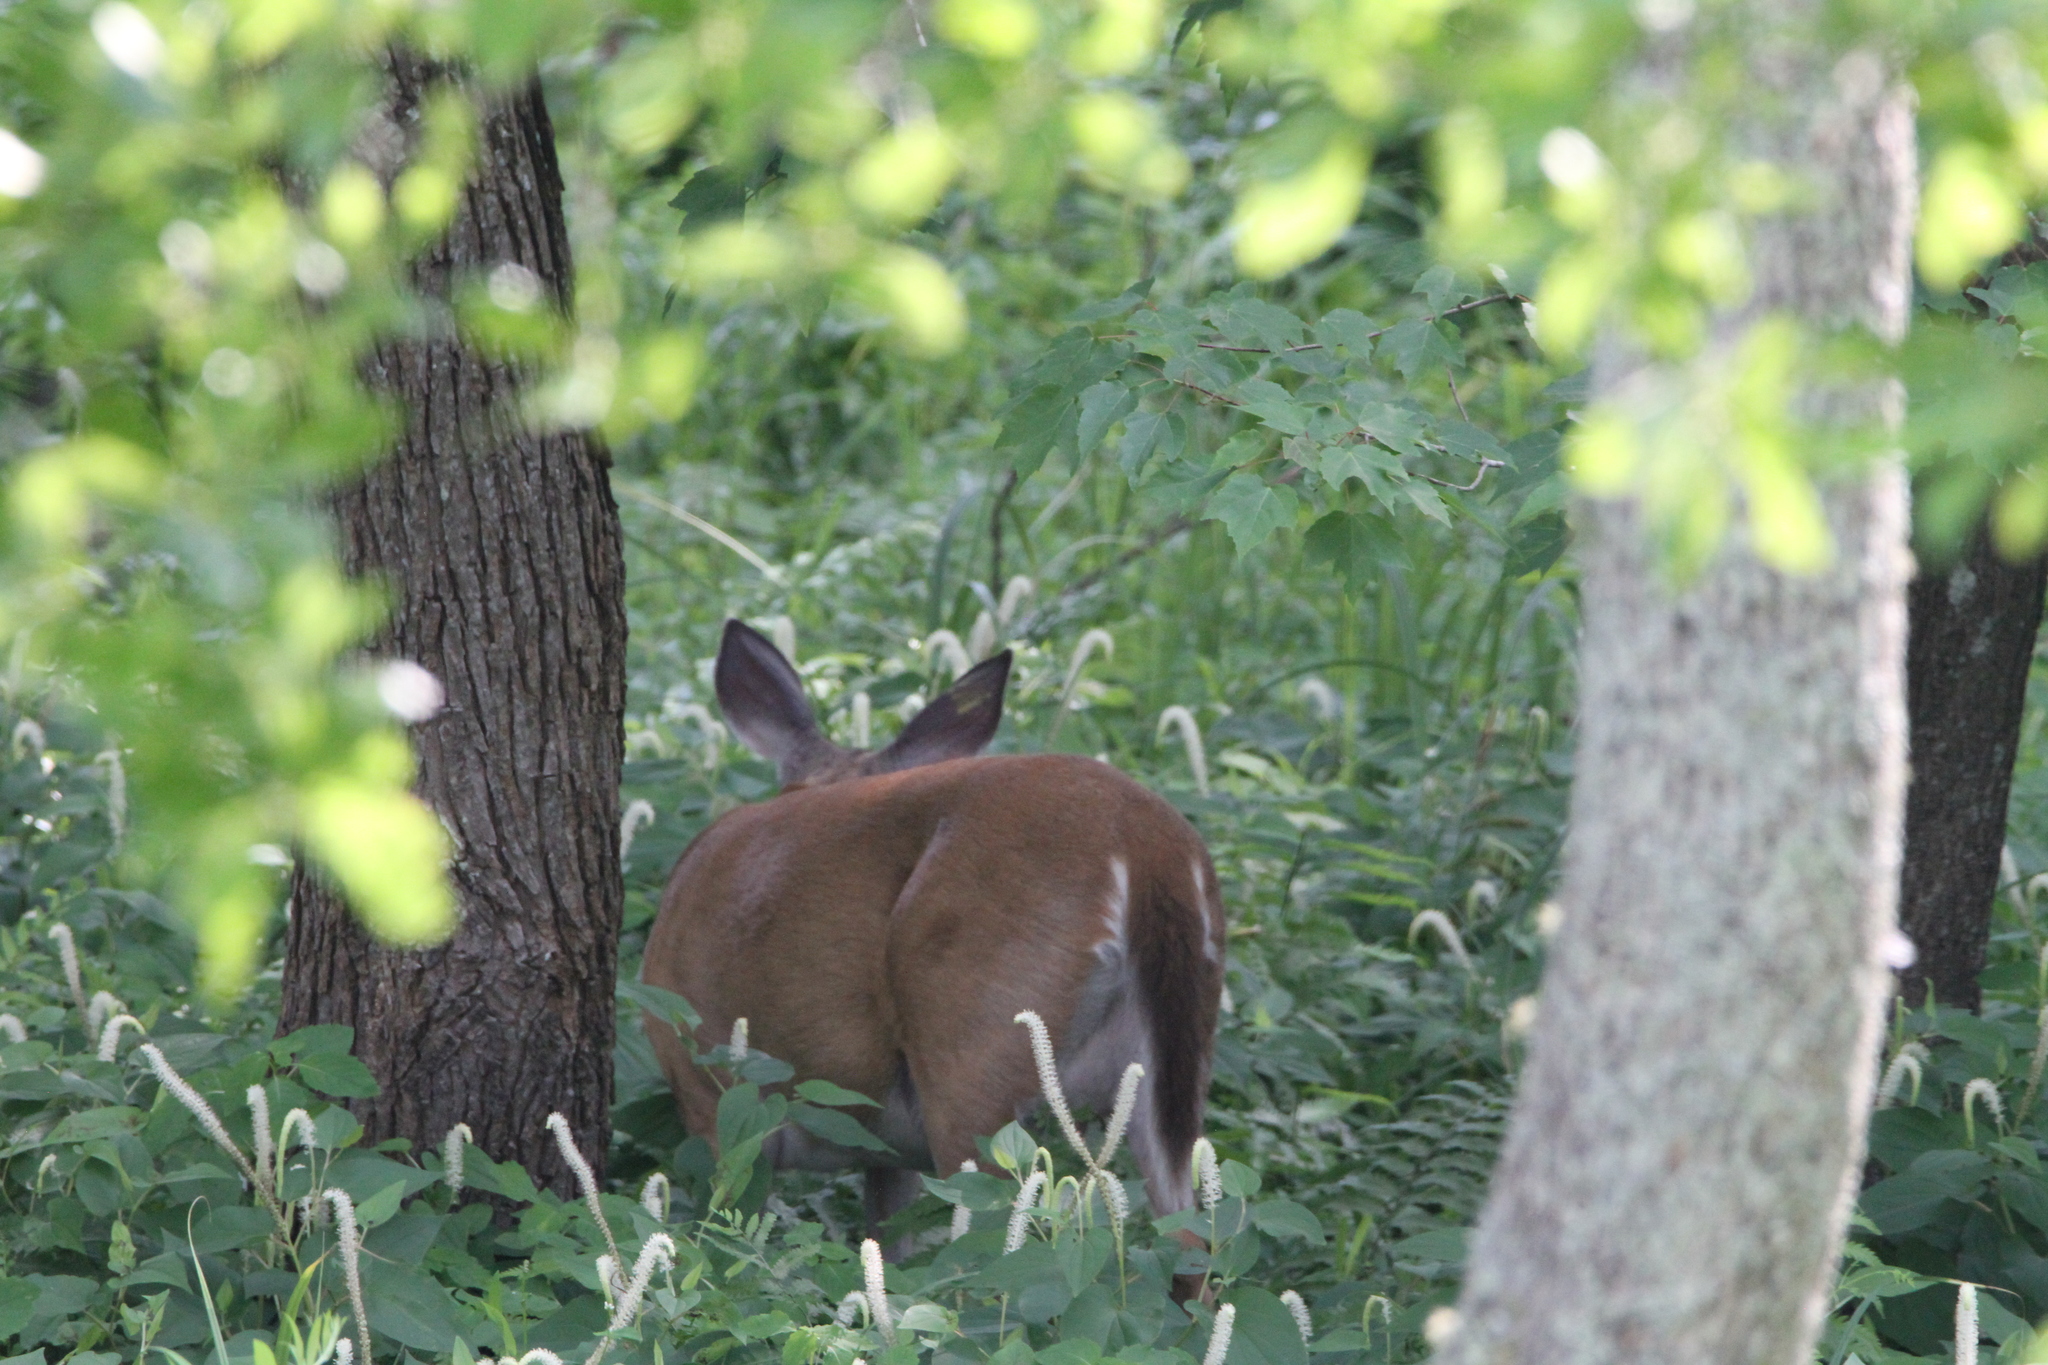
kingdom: Animalia
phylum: Chordata
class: Mammalia
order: Artiodactyla
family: Cervidae
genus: Odocoileus
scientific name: Odocoileus virginianus
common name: White-tailed deer
